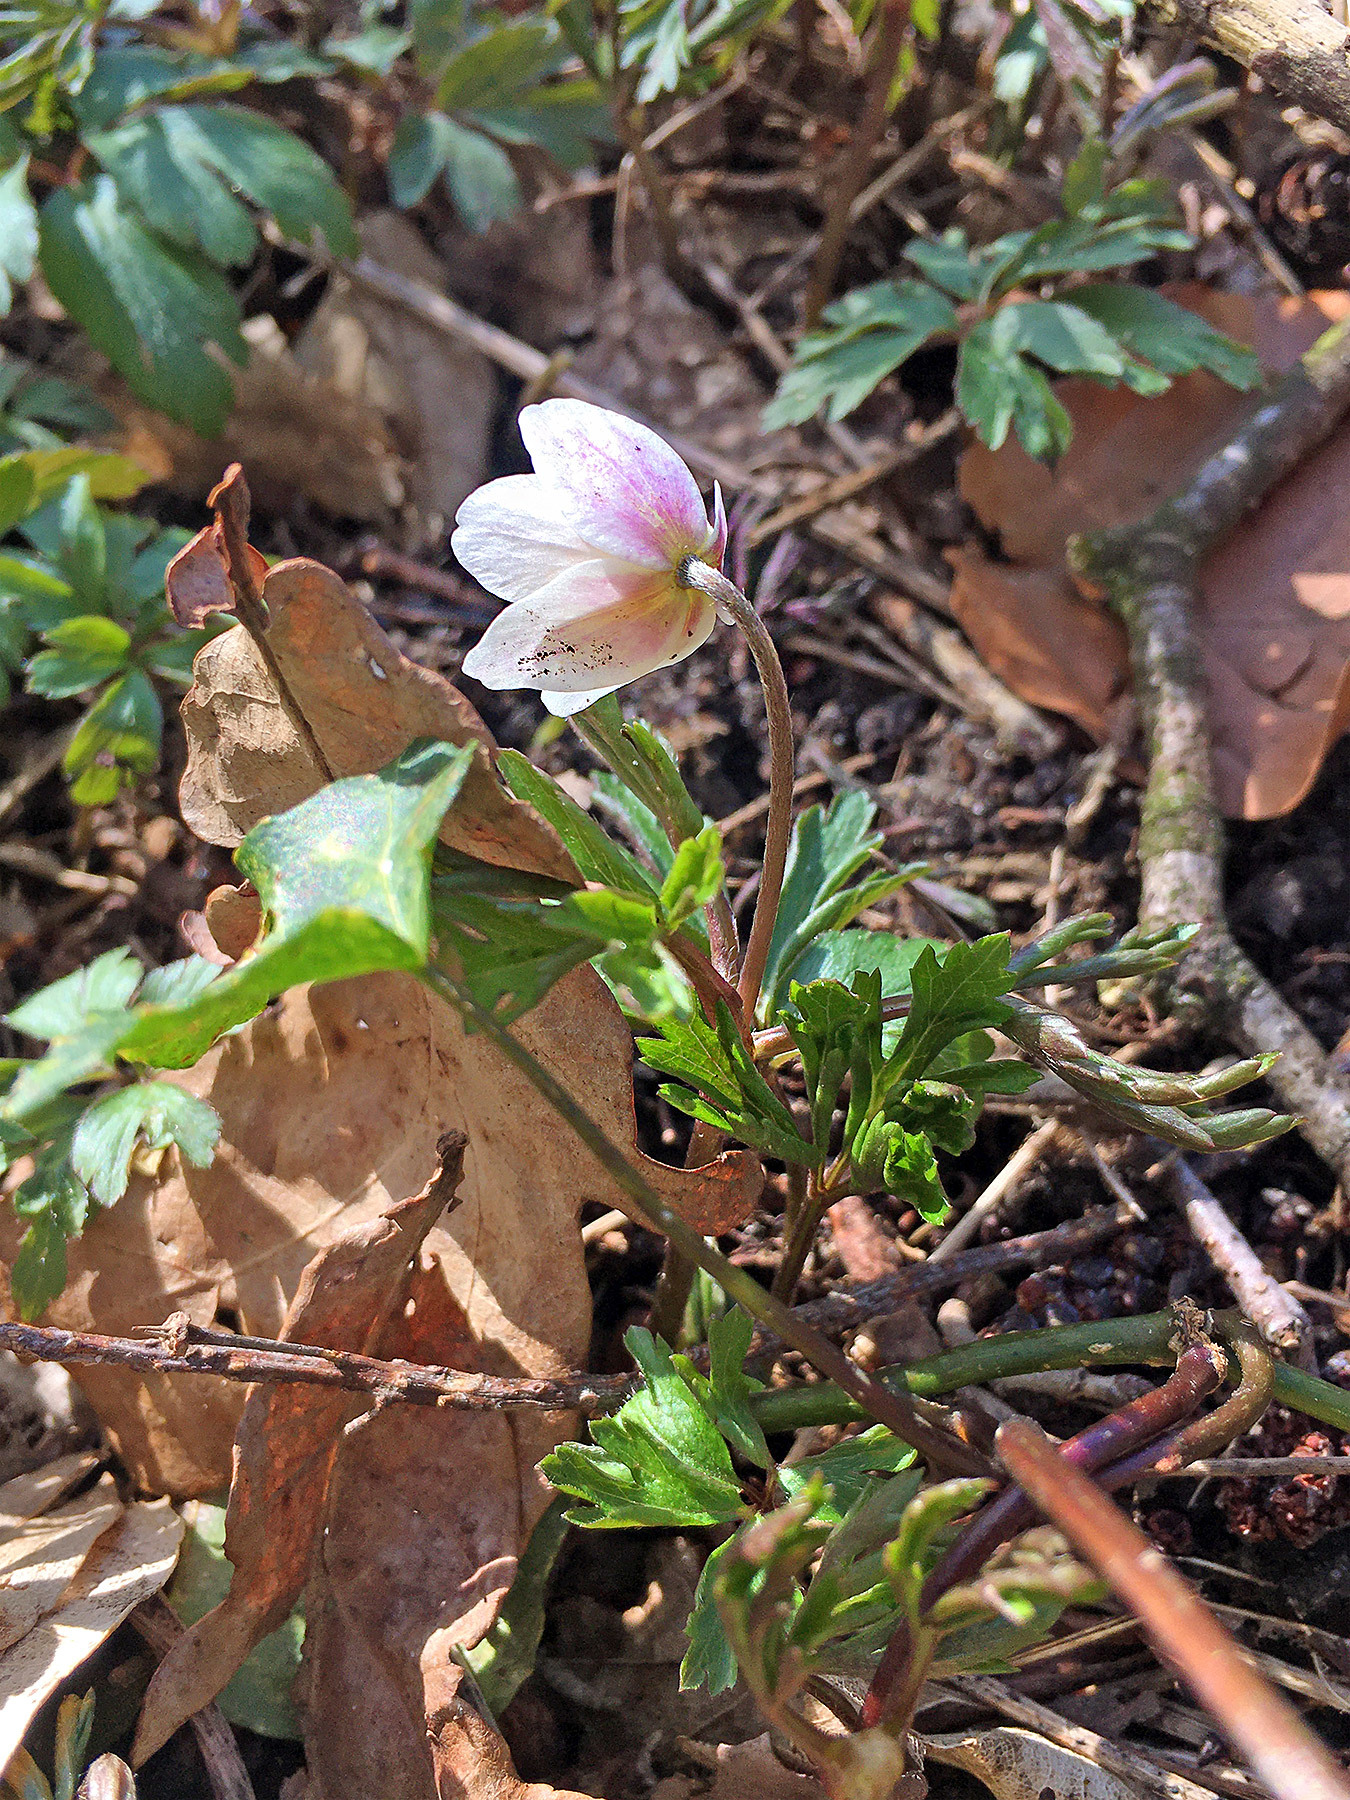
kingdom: Plantae
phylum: Tracheophyta
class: Magnoliopsida
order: Ranunculales
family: Ranunculaceae
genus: Anemone
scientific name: Anemone nemorosa
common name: Wood anemone
